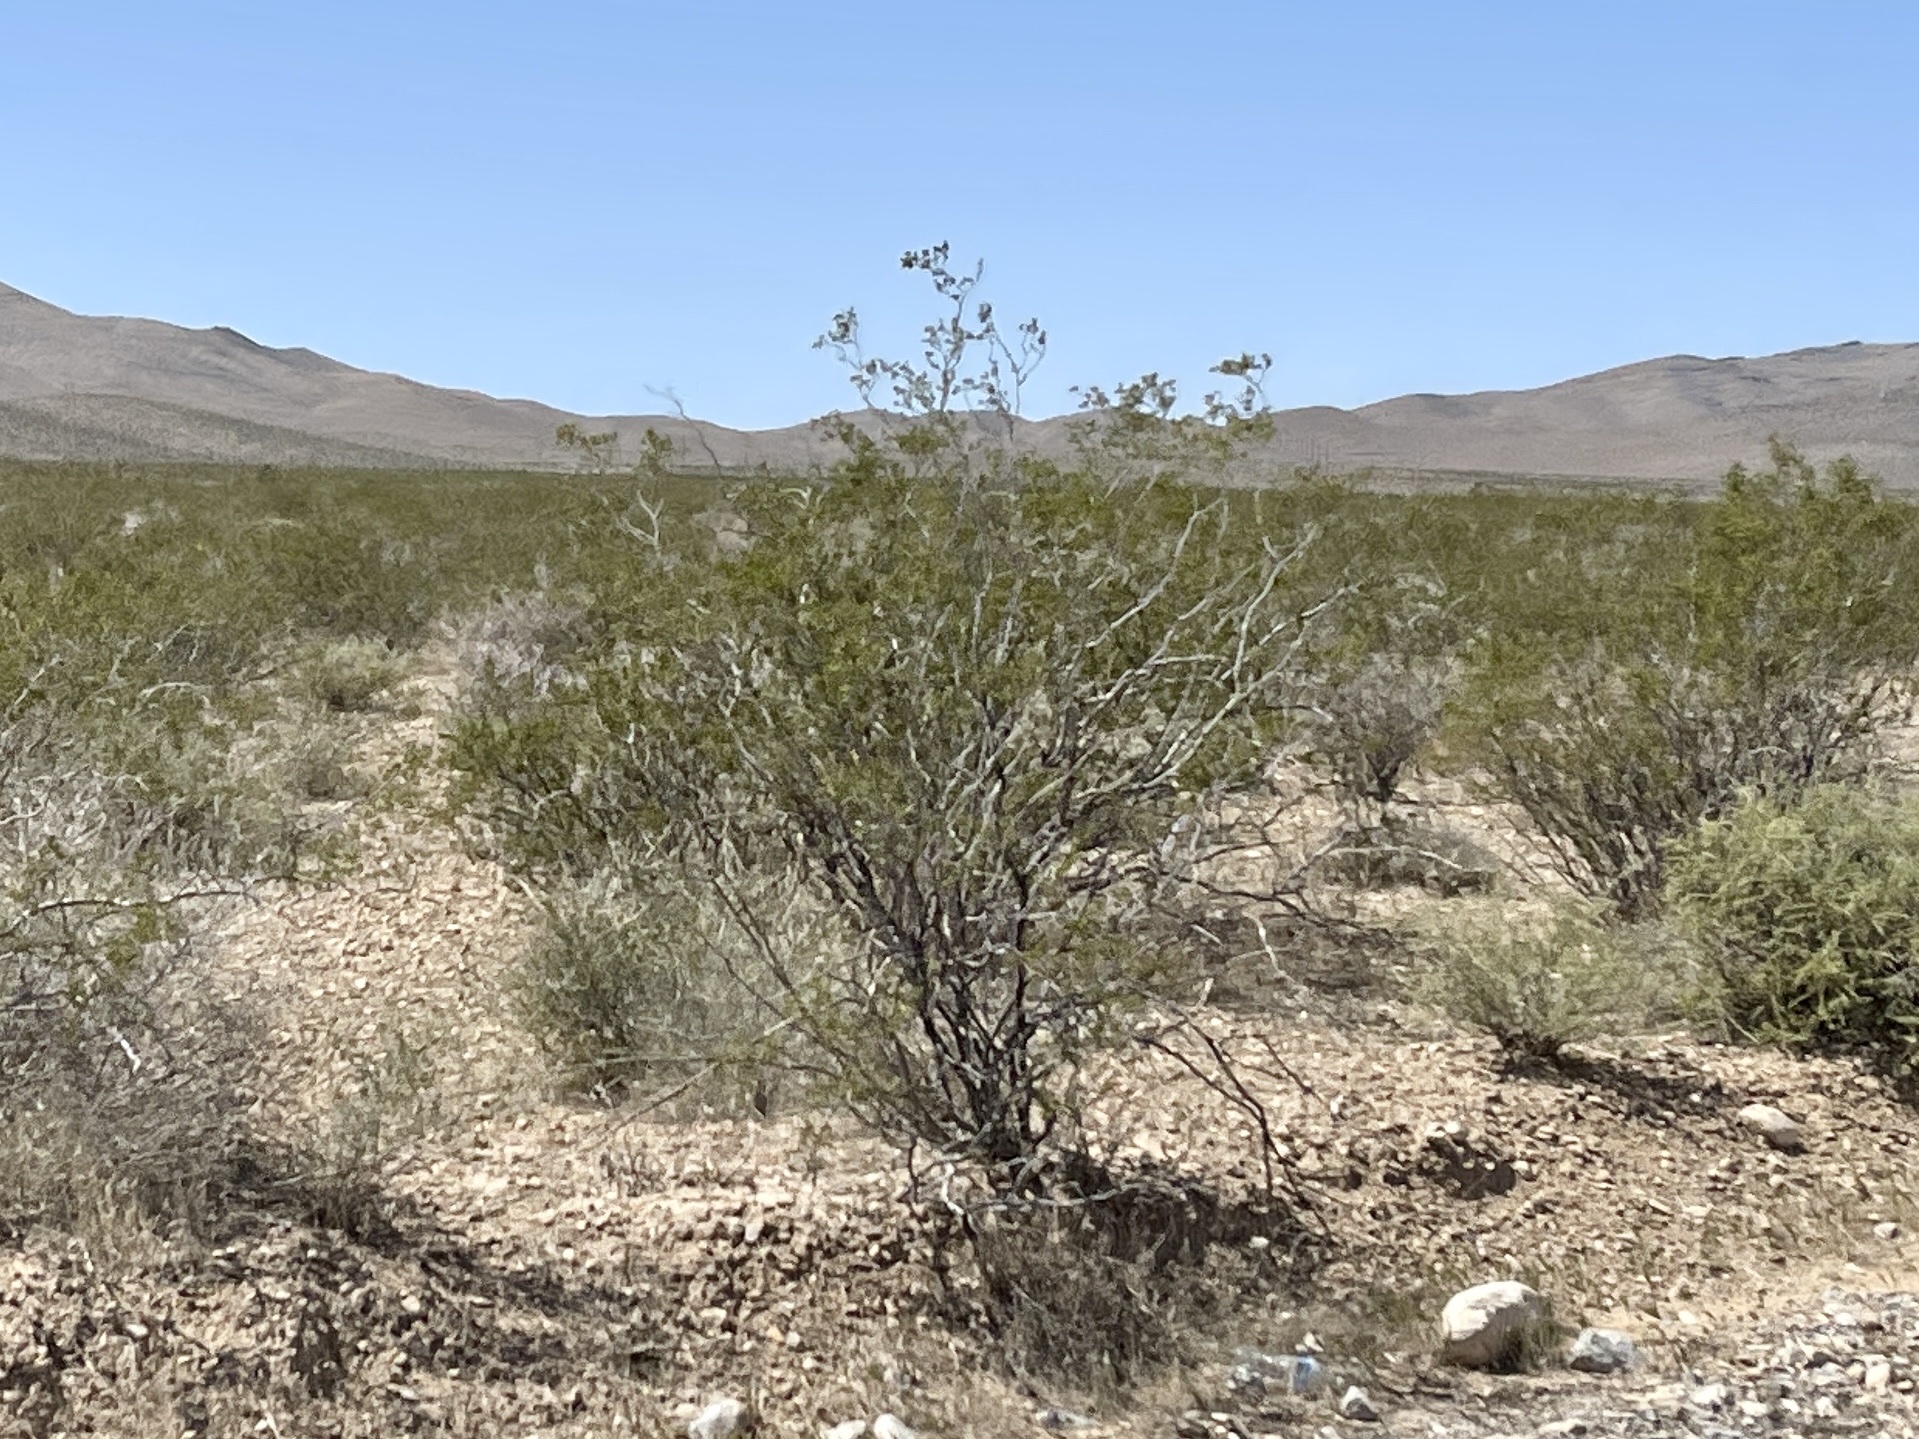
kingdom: Plantae
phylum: Tracheophyta
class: Magnoliopsida
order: Zygophyllales
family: Zygophyllaceae
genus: Larrea
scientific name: Larrea tridentata
